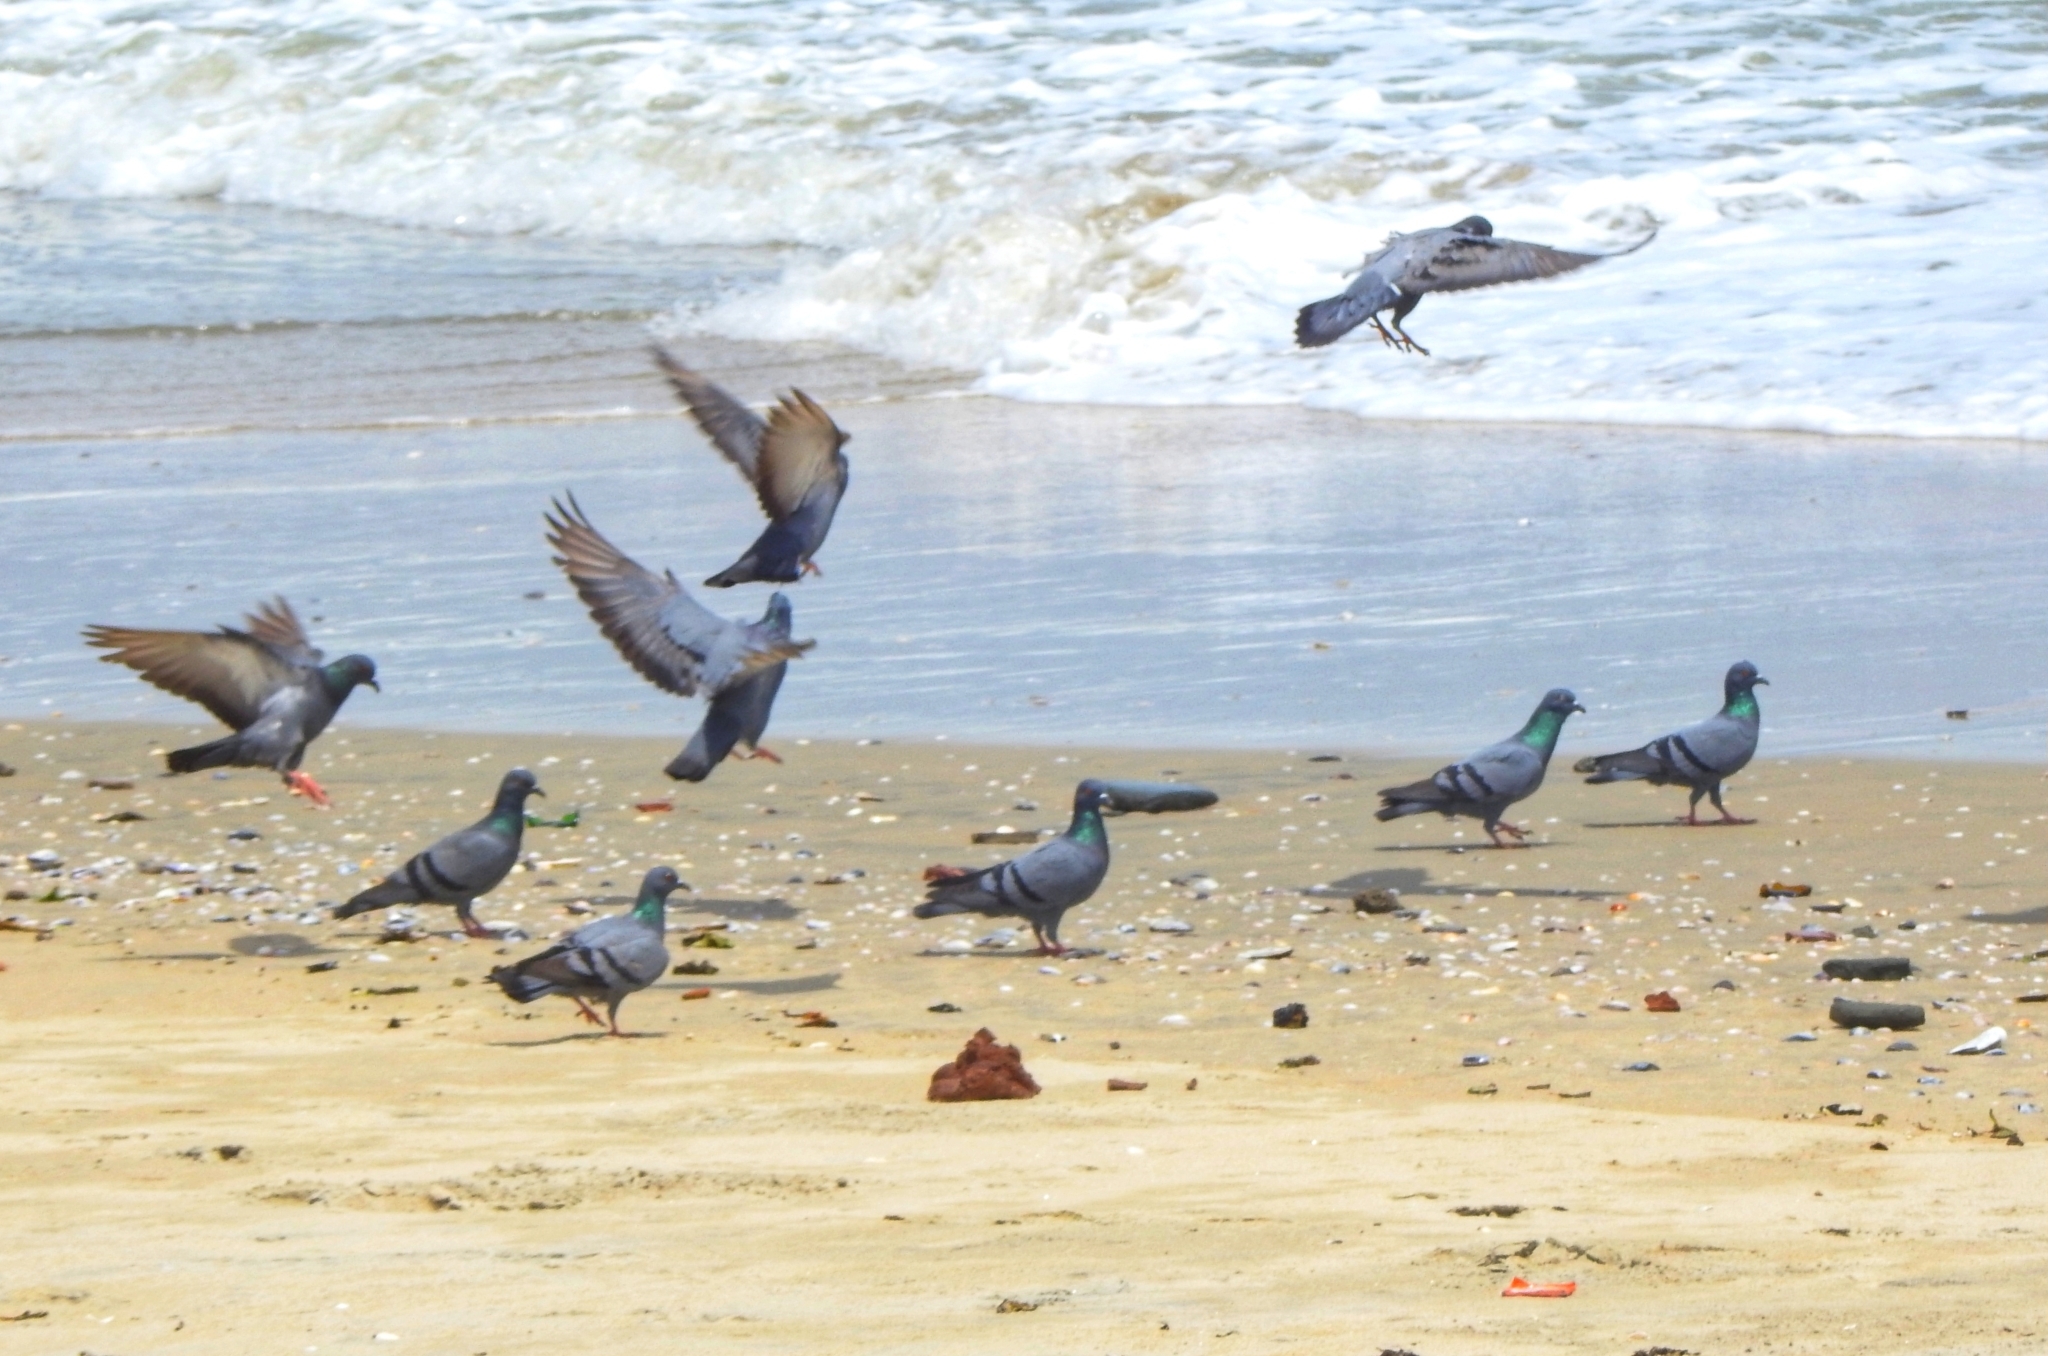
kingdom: Animalia
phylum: Chordata
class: Aves
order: Columbiformes
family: Columbidae
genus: Columba
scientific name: Columba livia
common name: Rock pigeon
